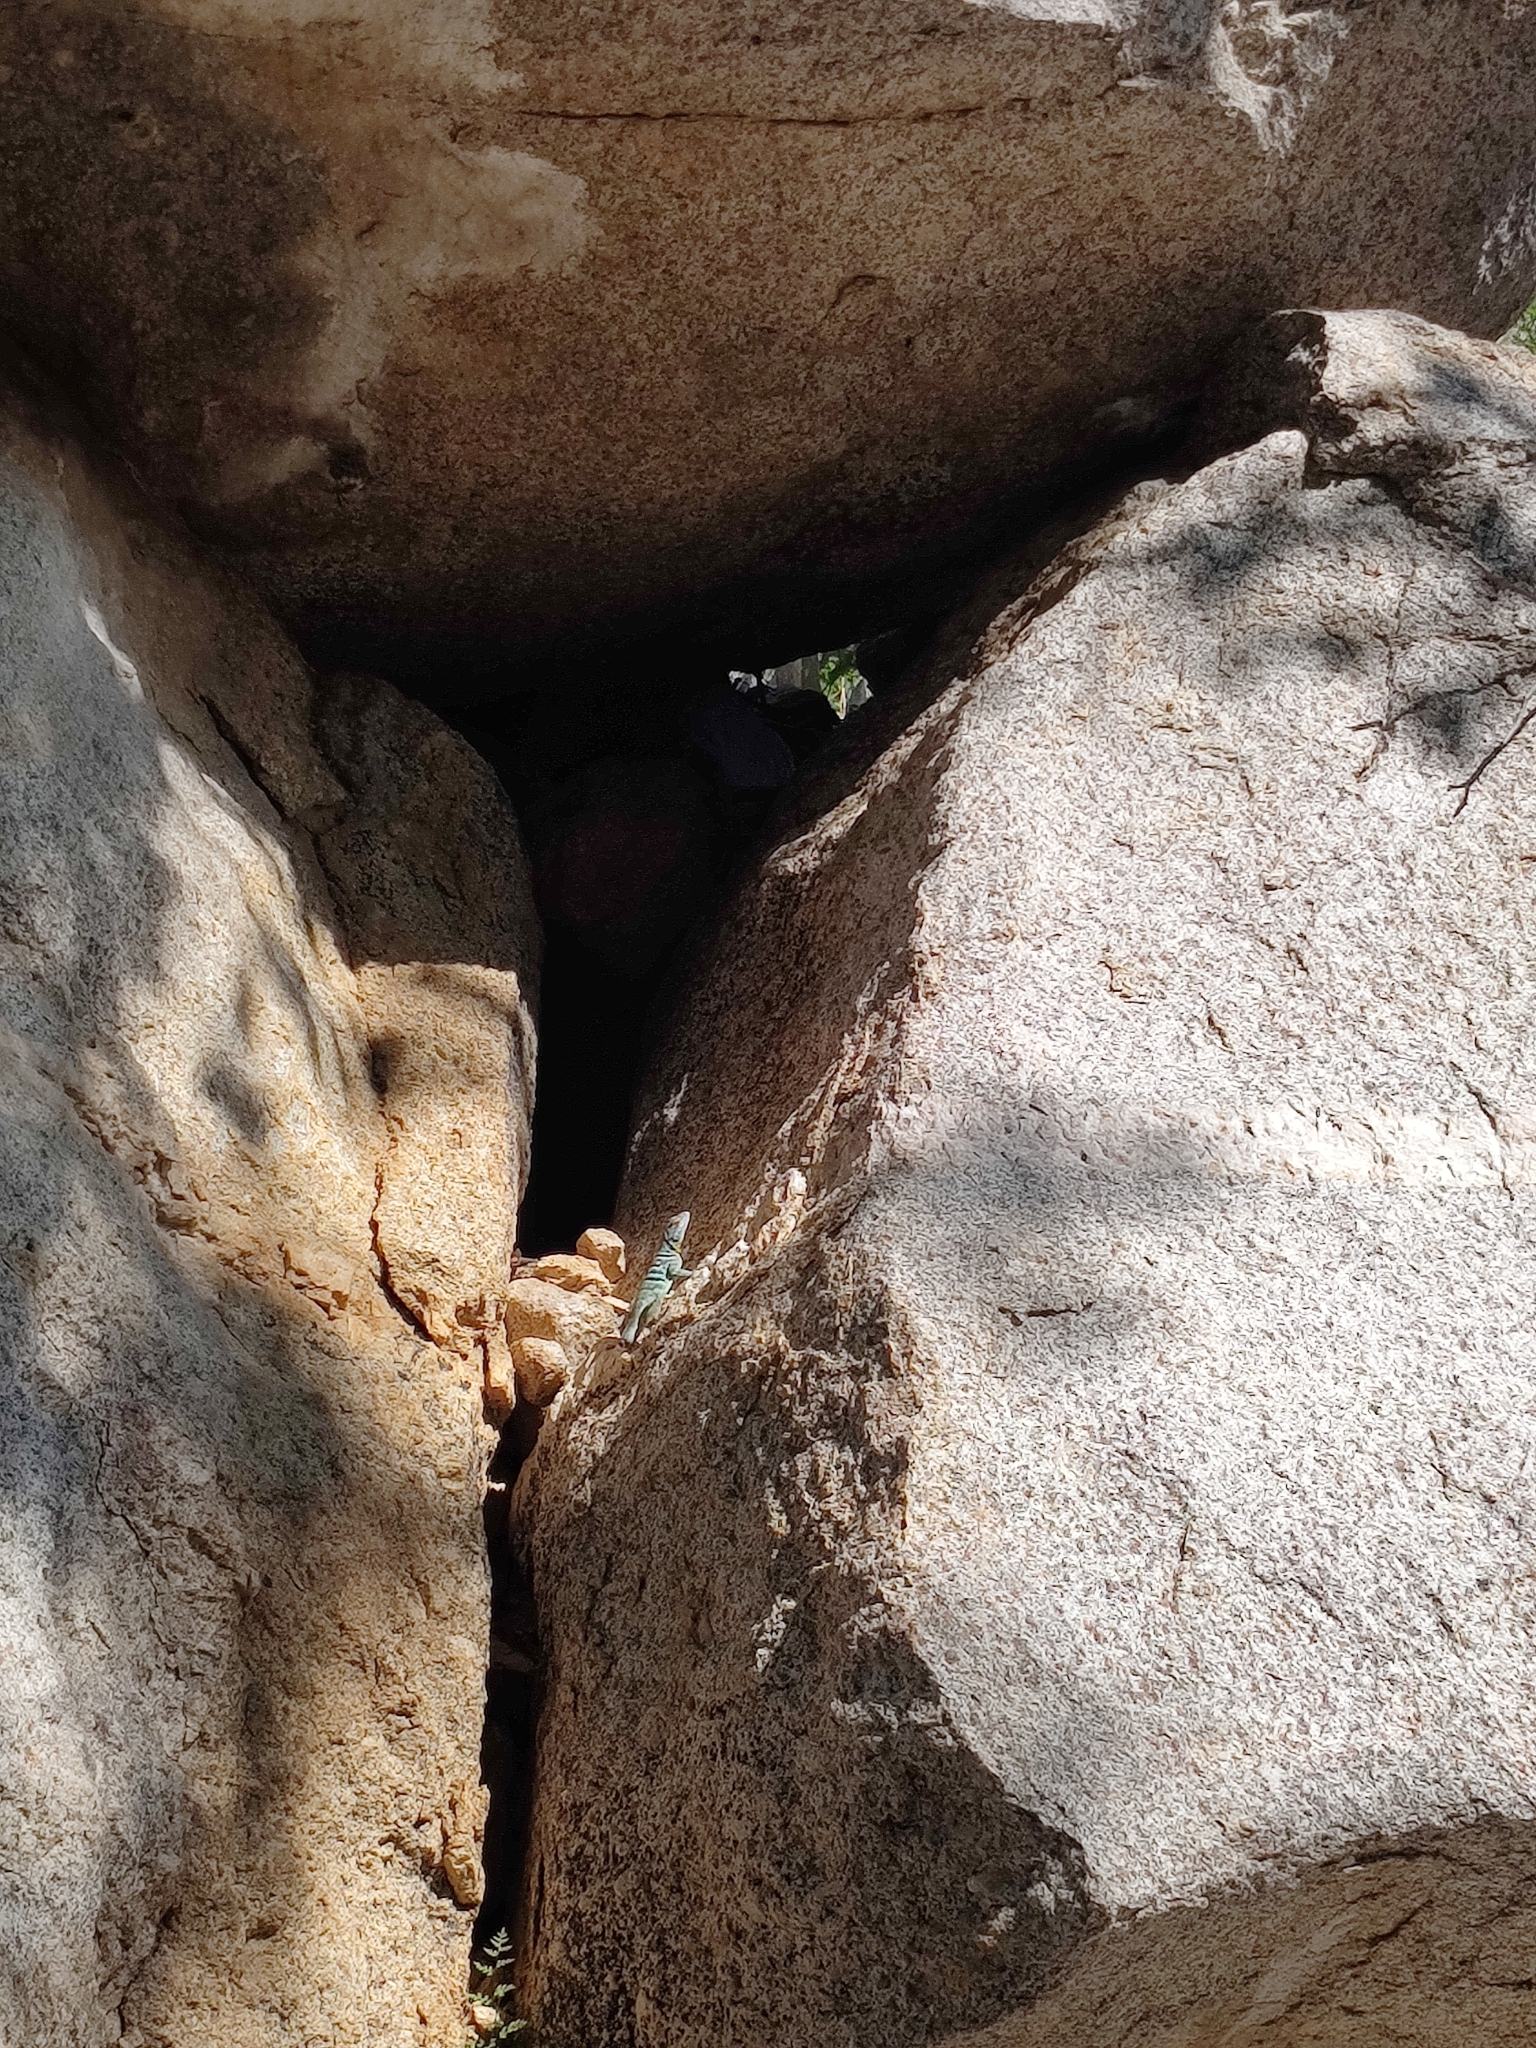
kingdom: Animalia
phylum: Chordata
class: Squamata
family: Phrynosomatidae
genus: Petrosaurus
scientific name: Petrosaurus thalassinus
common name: Baja california rock lizard
